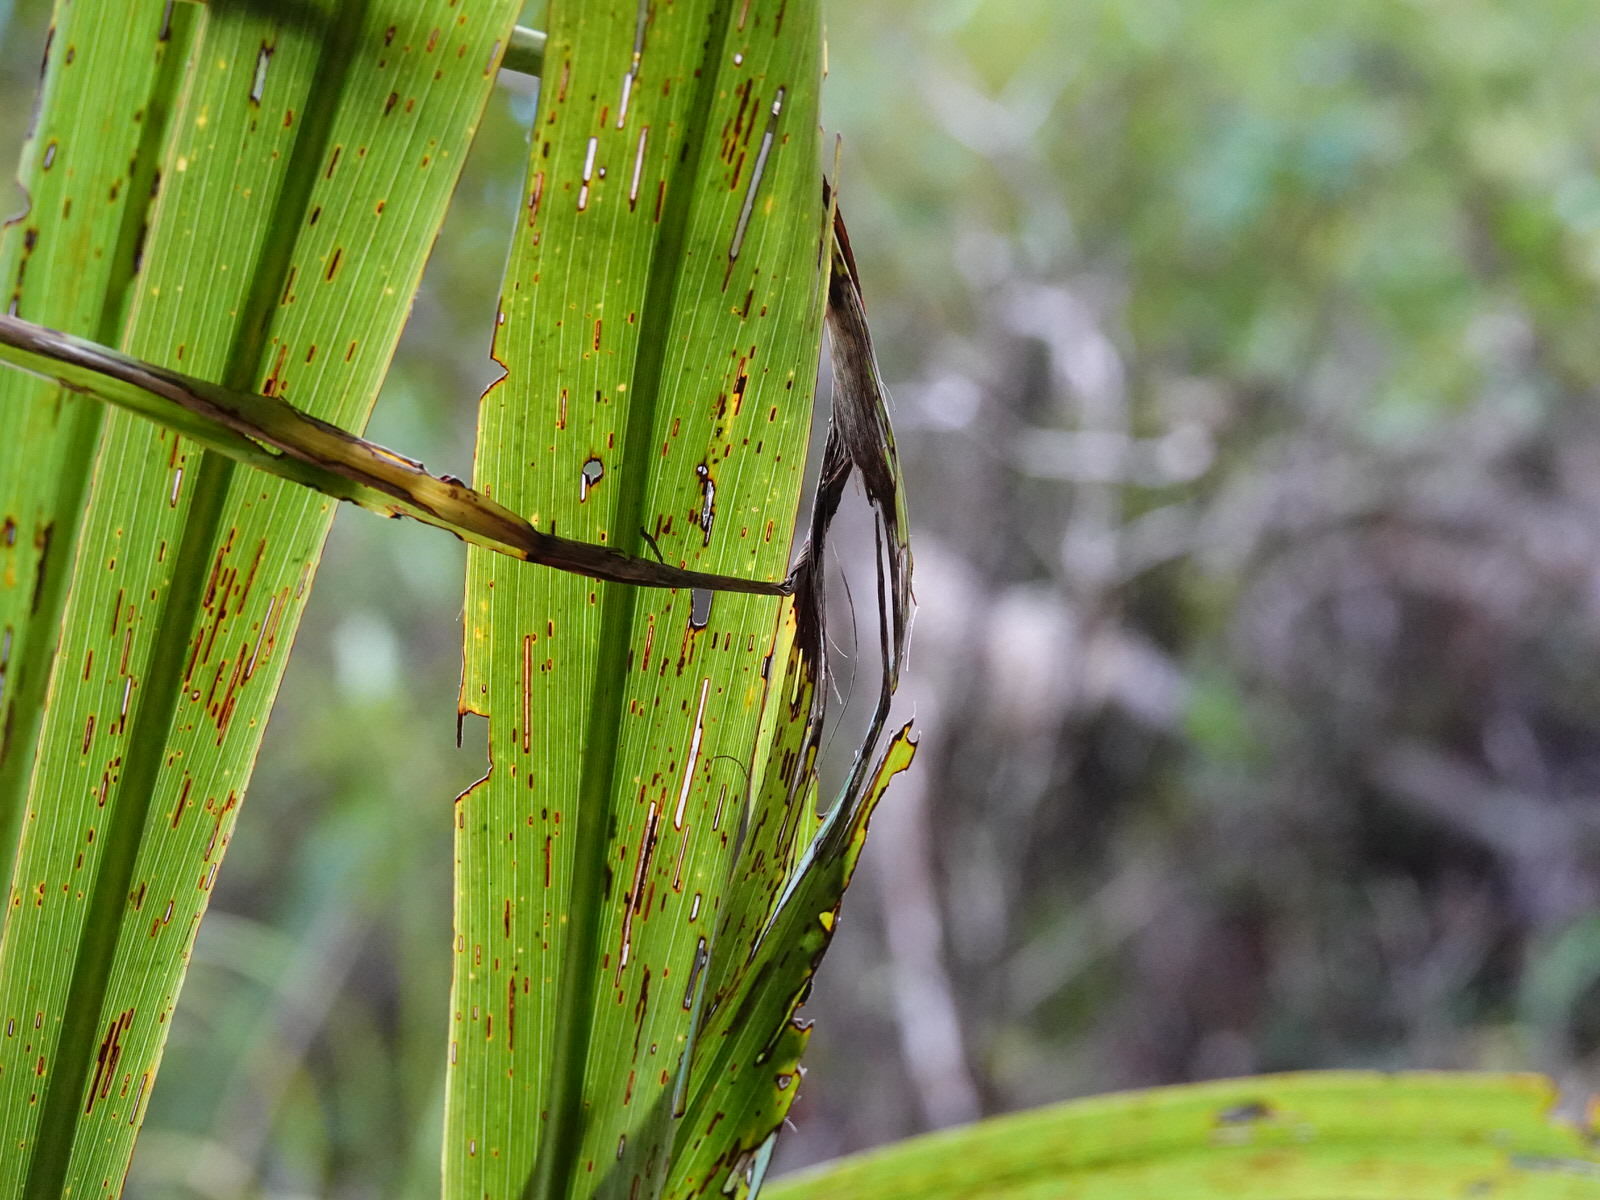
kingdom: Plantae
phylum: Tracheophyta
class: Liliopsida
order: Asparagales
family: Asparagaceae
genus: Cordyline
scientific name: Cordyline banksii
